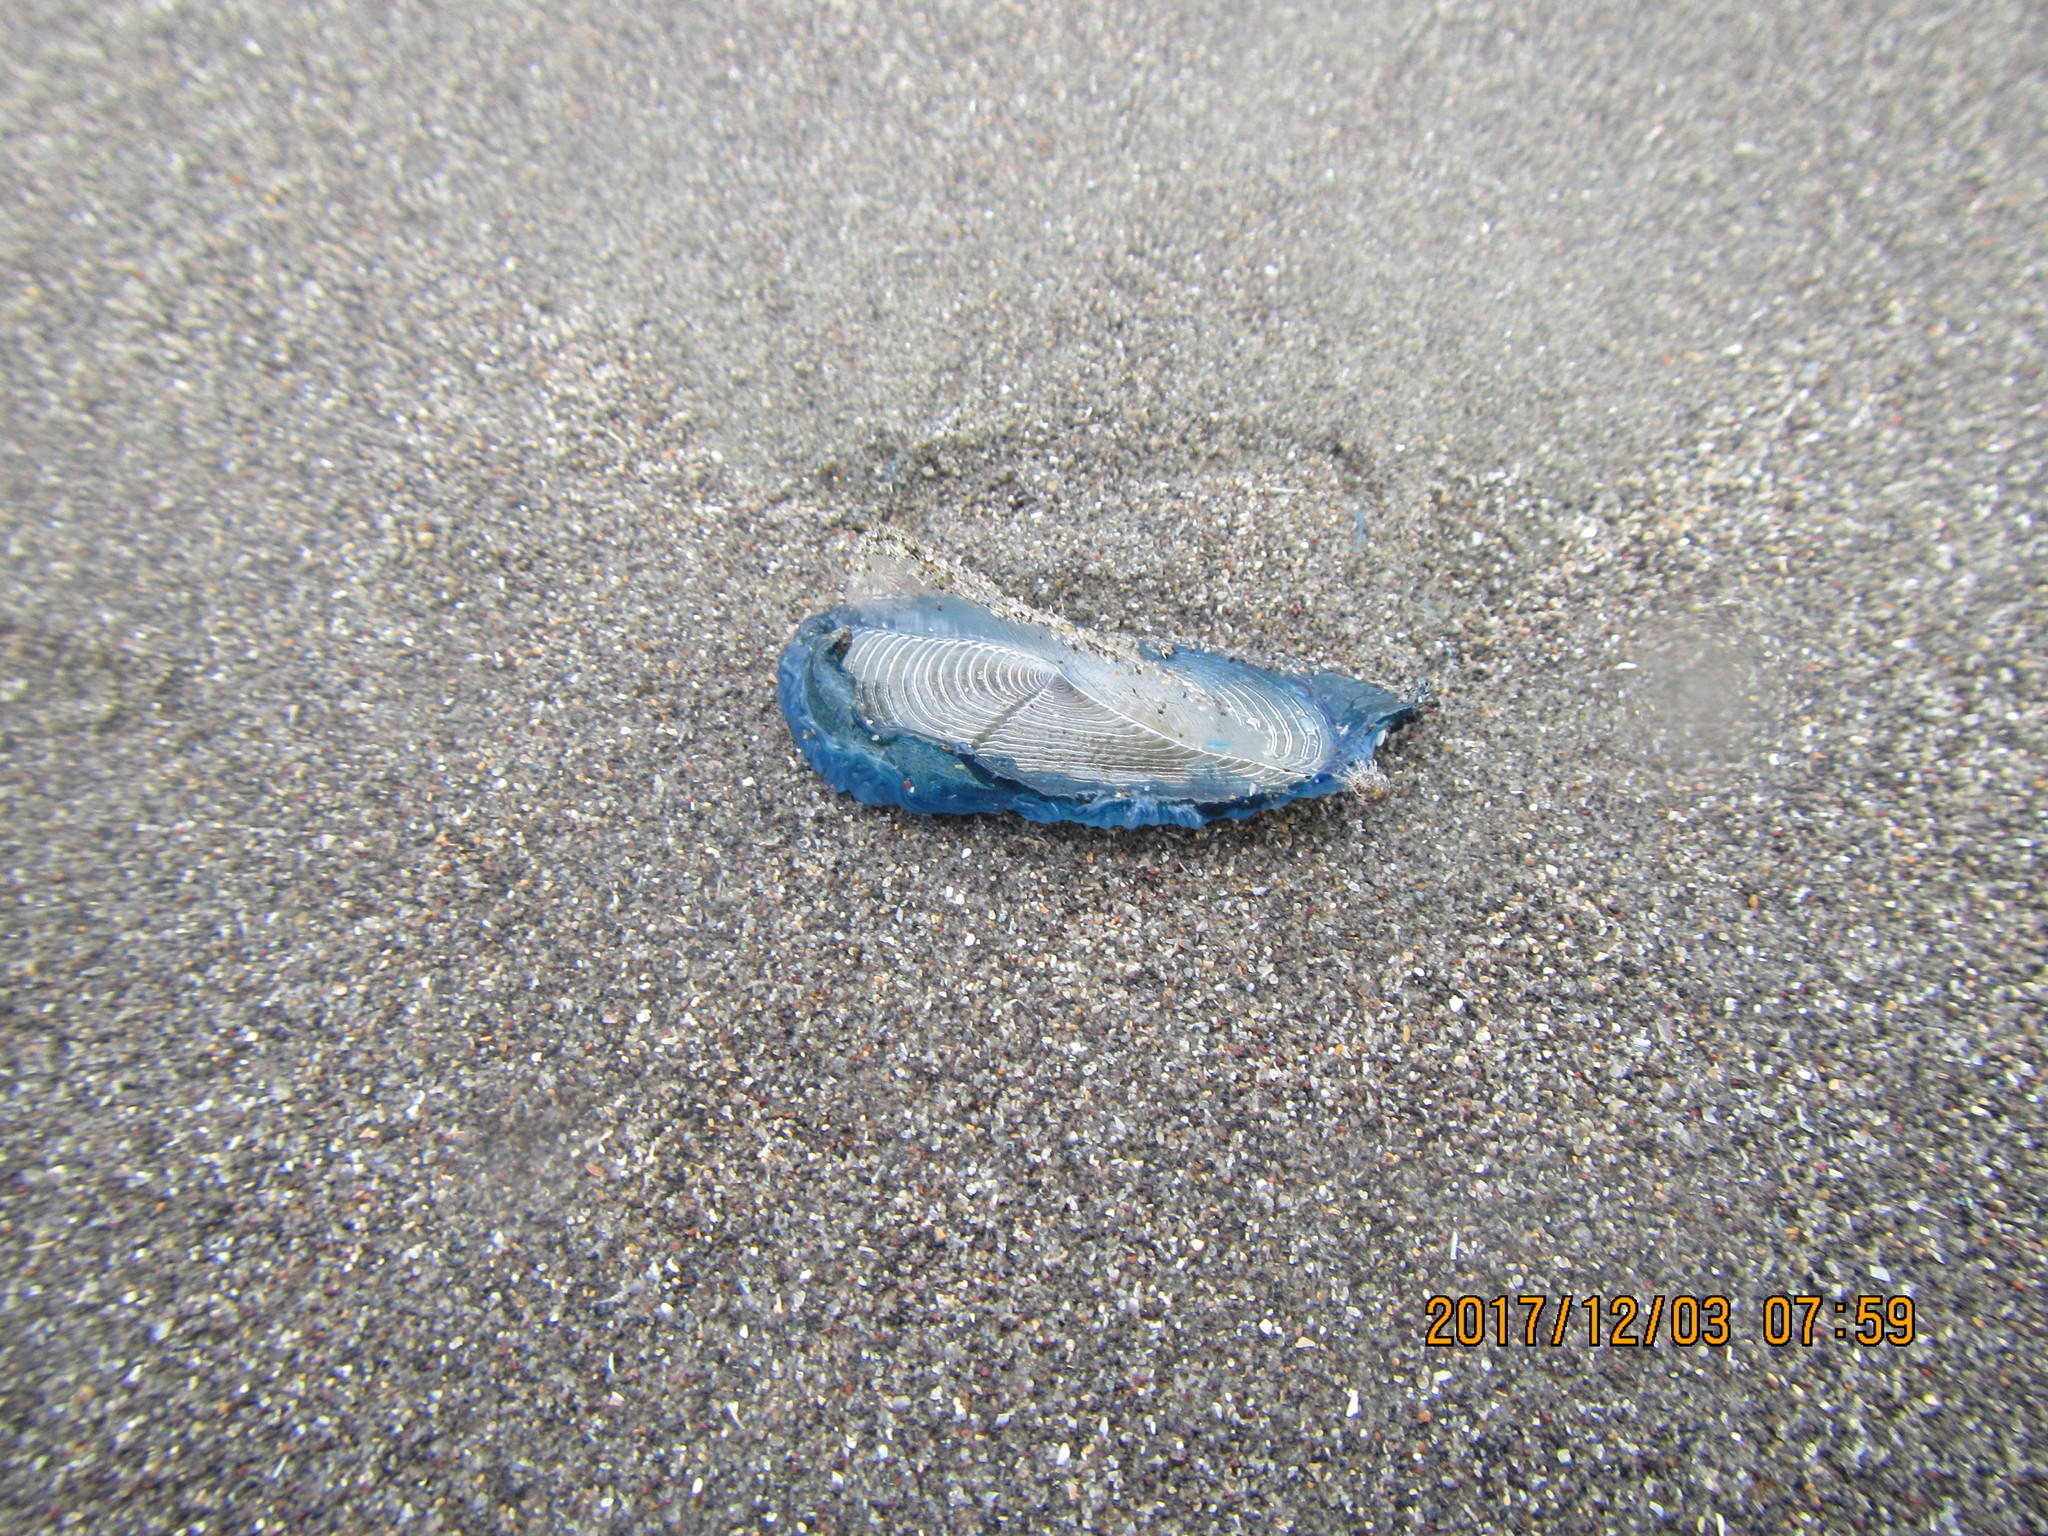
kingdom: Animalia
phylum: Cnidaria
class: Hydrozoa
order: Anthoathecata
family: Porpitidae
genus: Velella
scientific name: Velella velella
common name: By-the-wind-sailor
